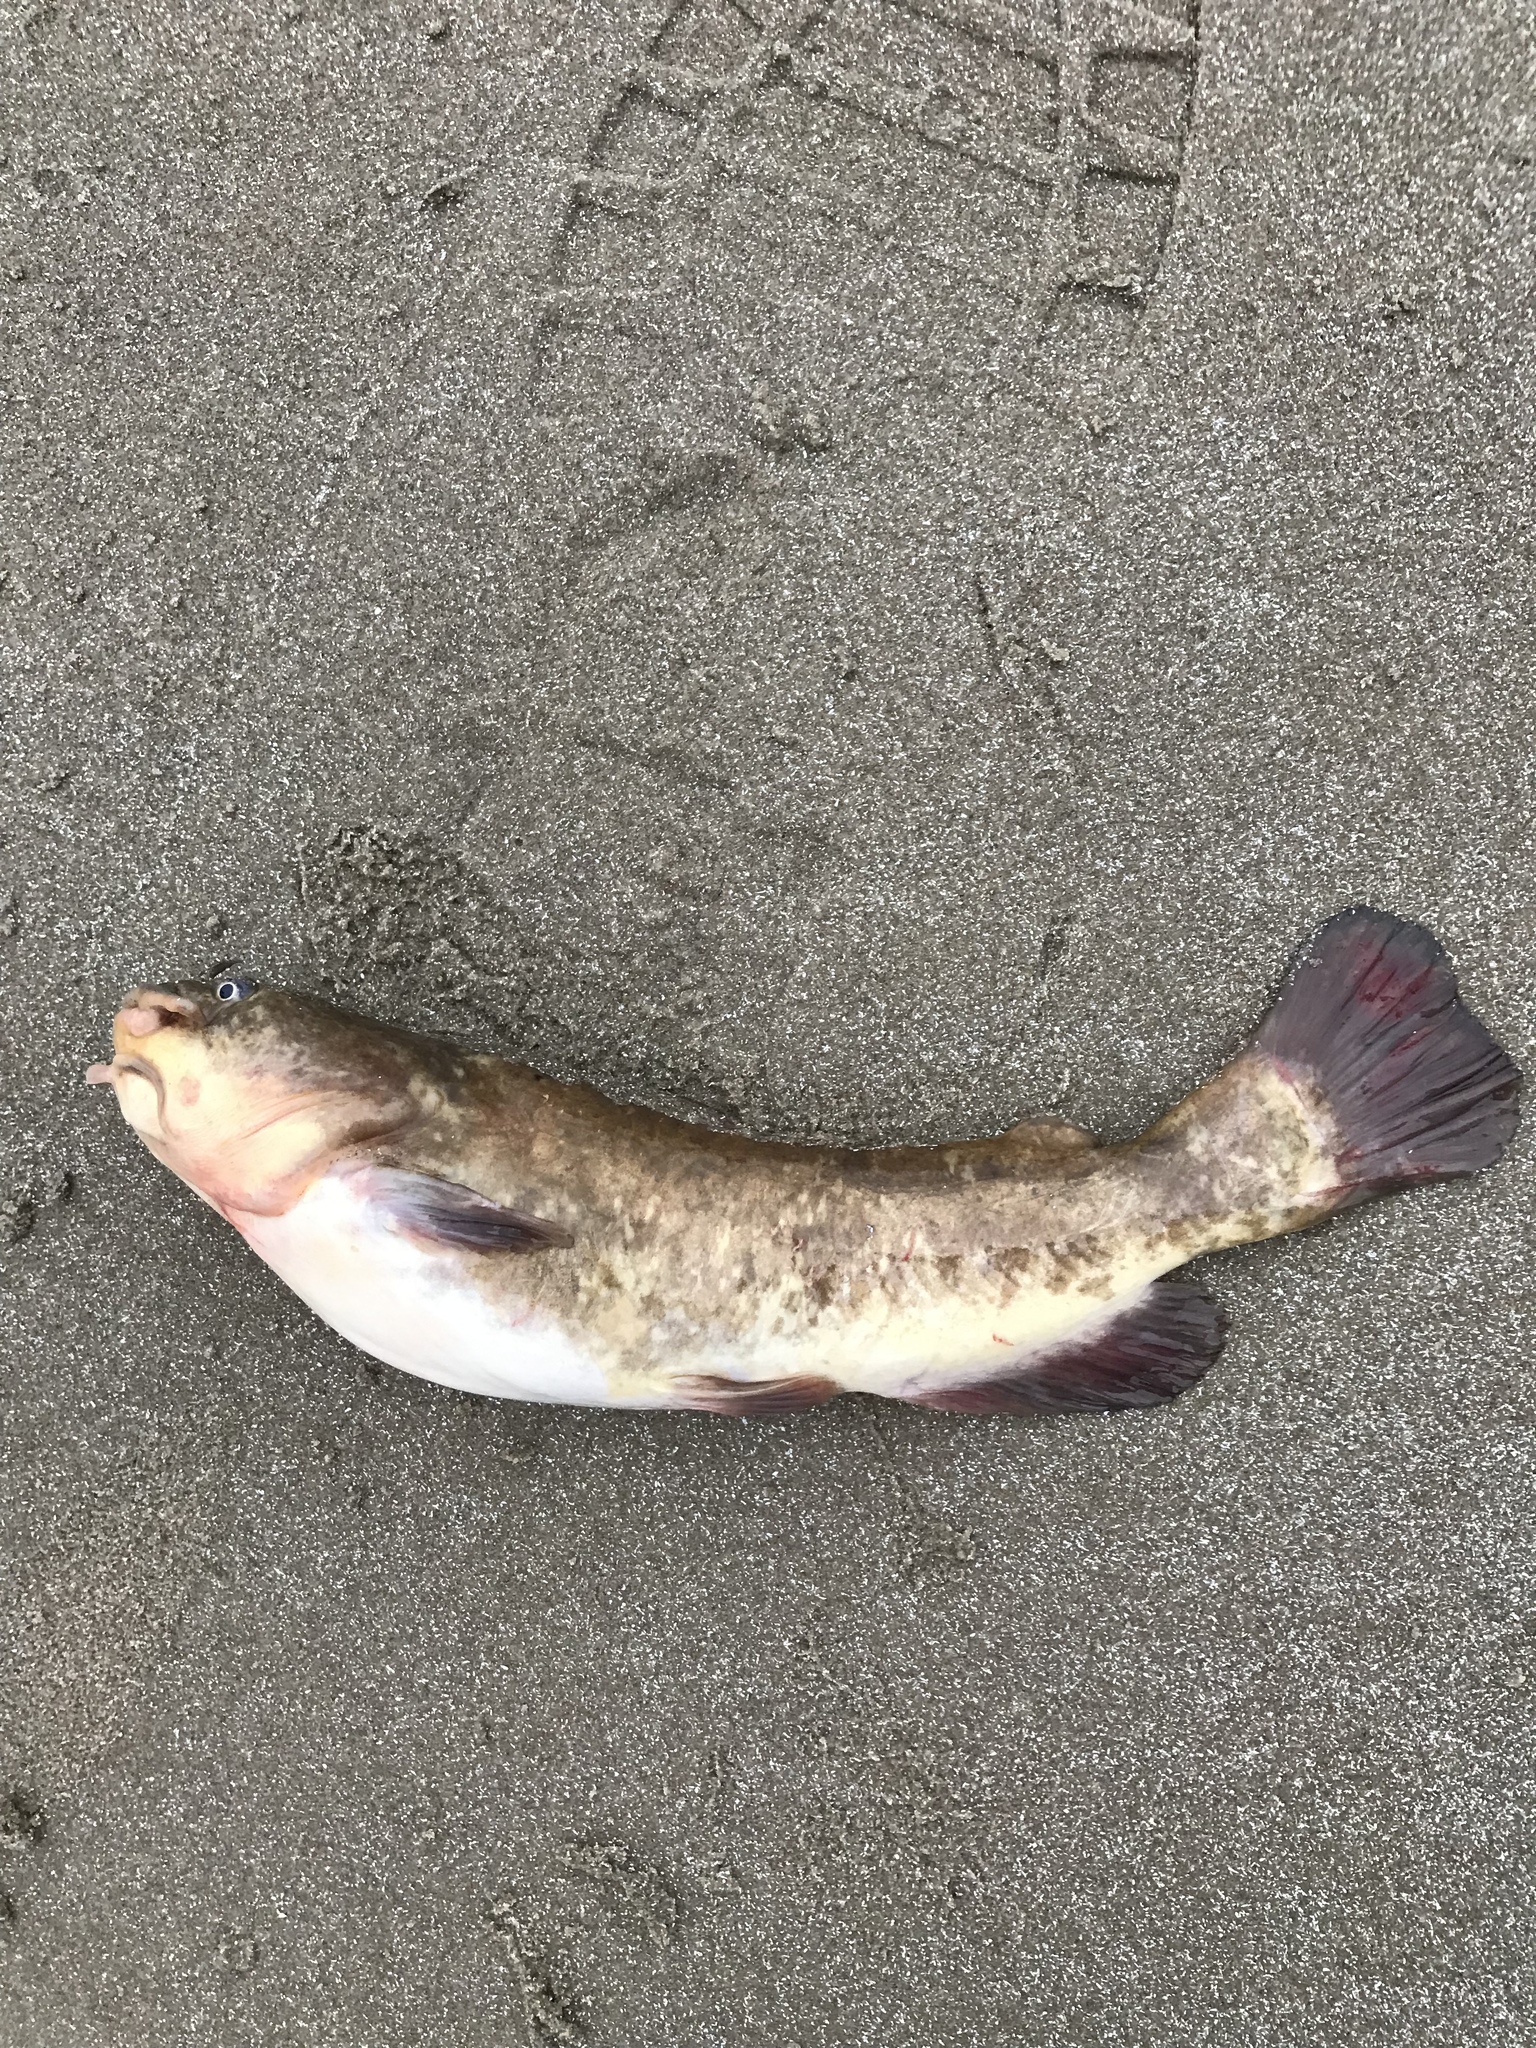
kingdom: Animalia
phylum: Chordata
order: Siluriformes
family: Ictaluridae
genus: Ameiurus
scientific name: Ameiurus nebulosus
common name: Brown bullhead
